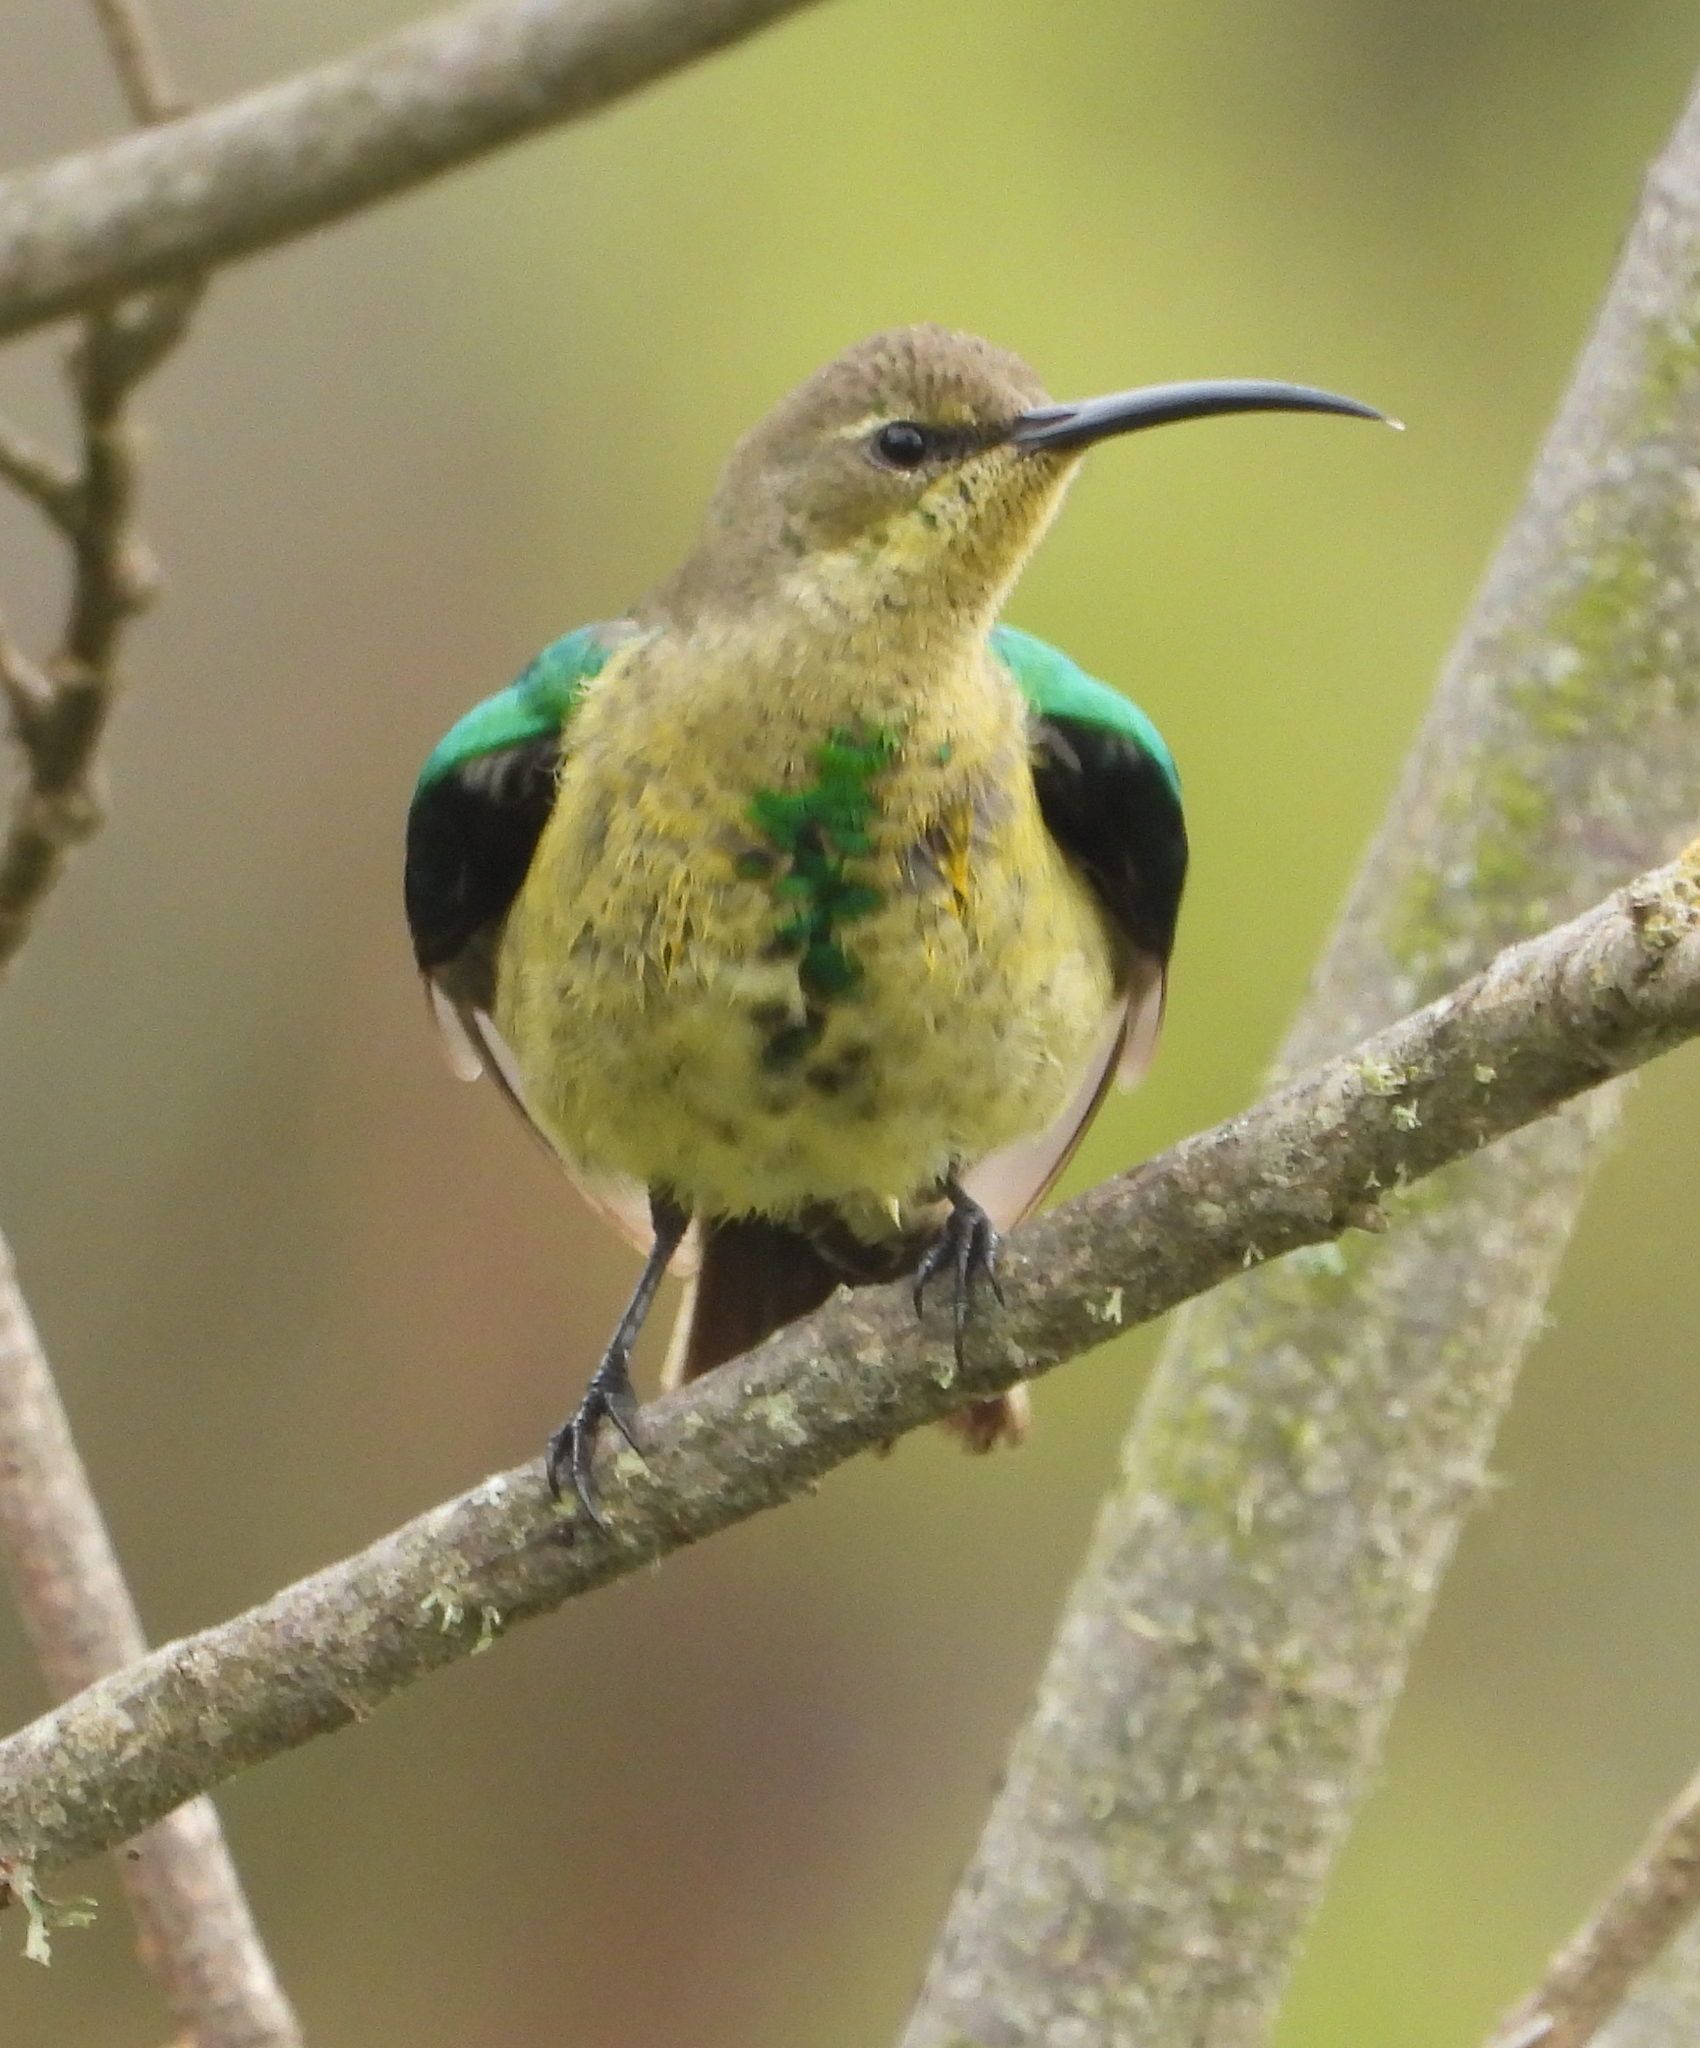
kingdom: Animalia
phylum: Chordata
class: Aves
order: Passeriformes
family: Nectariniidae
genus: Nectarinia
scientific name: Nectarinia famosa
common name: Malachite sunbird
